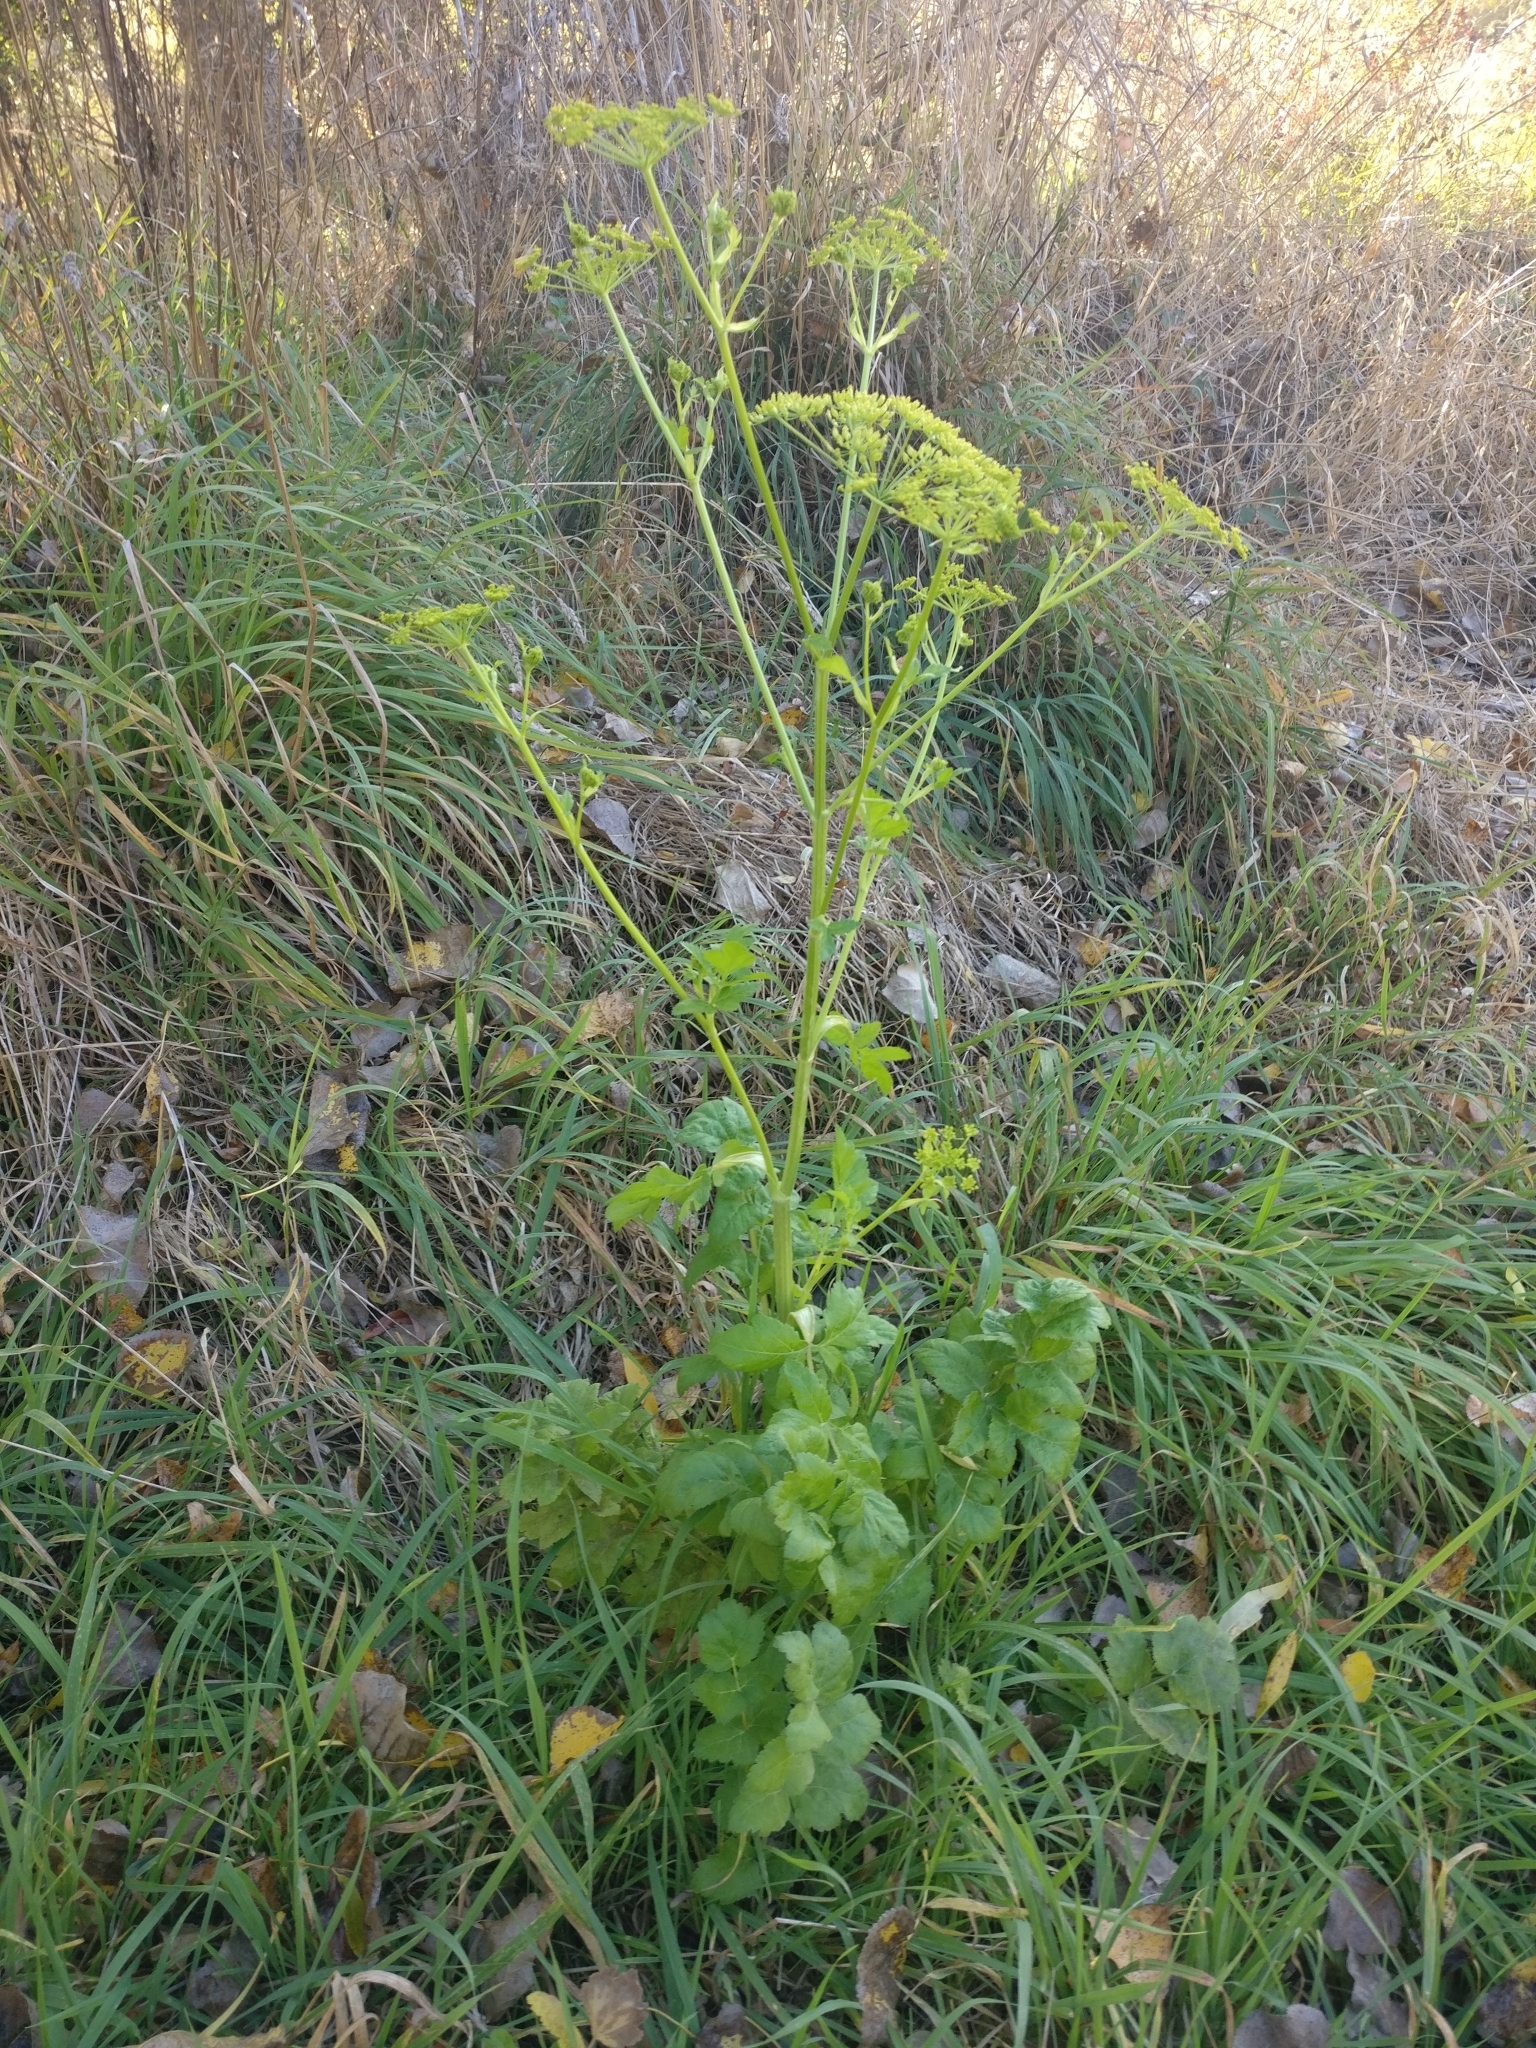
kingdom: Plantae
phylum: Tracheophyta
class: Magnoliopsida
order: Apiales
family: Apiaceae
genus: Pastinaca
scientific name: Pastinaca sativa
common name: Wild parsnip
